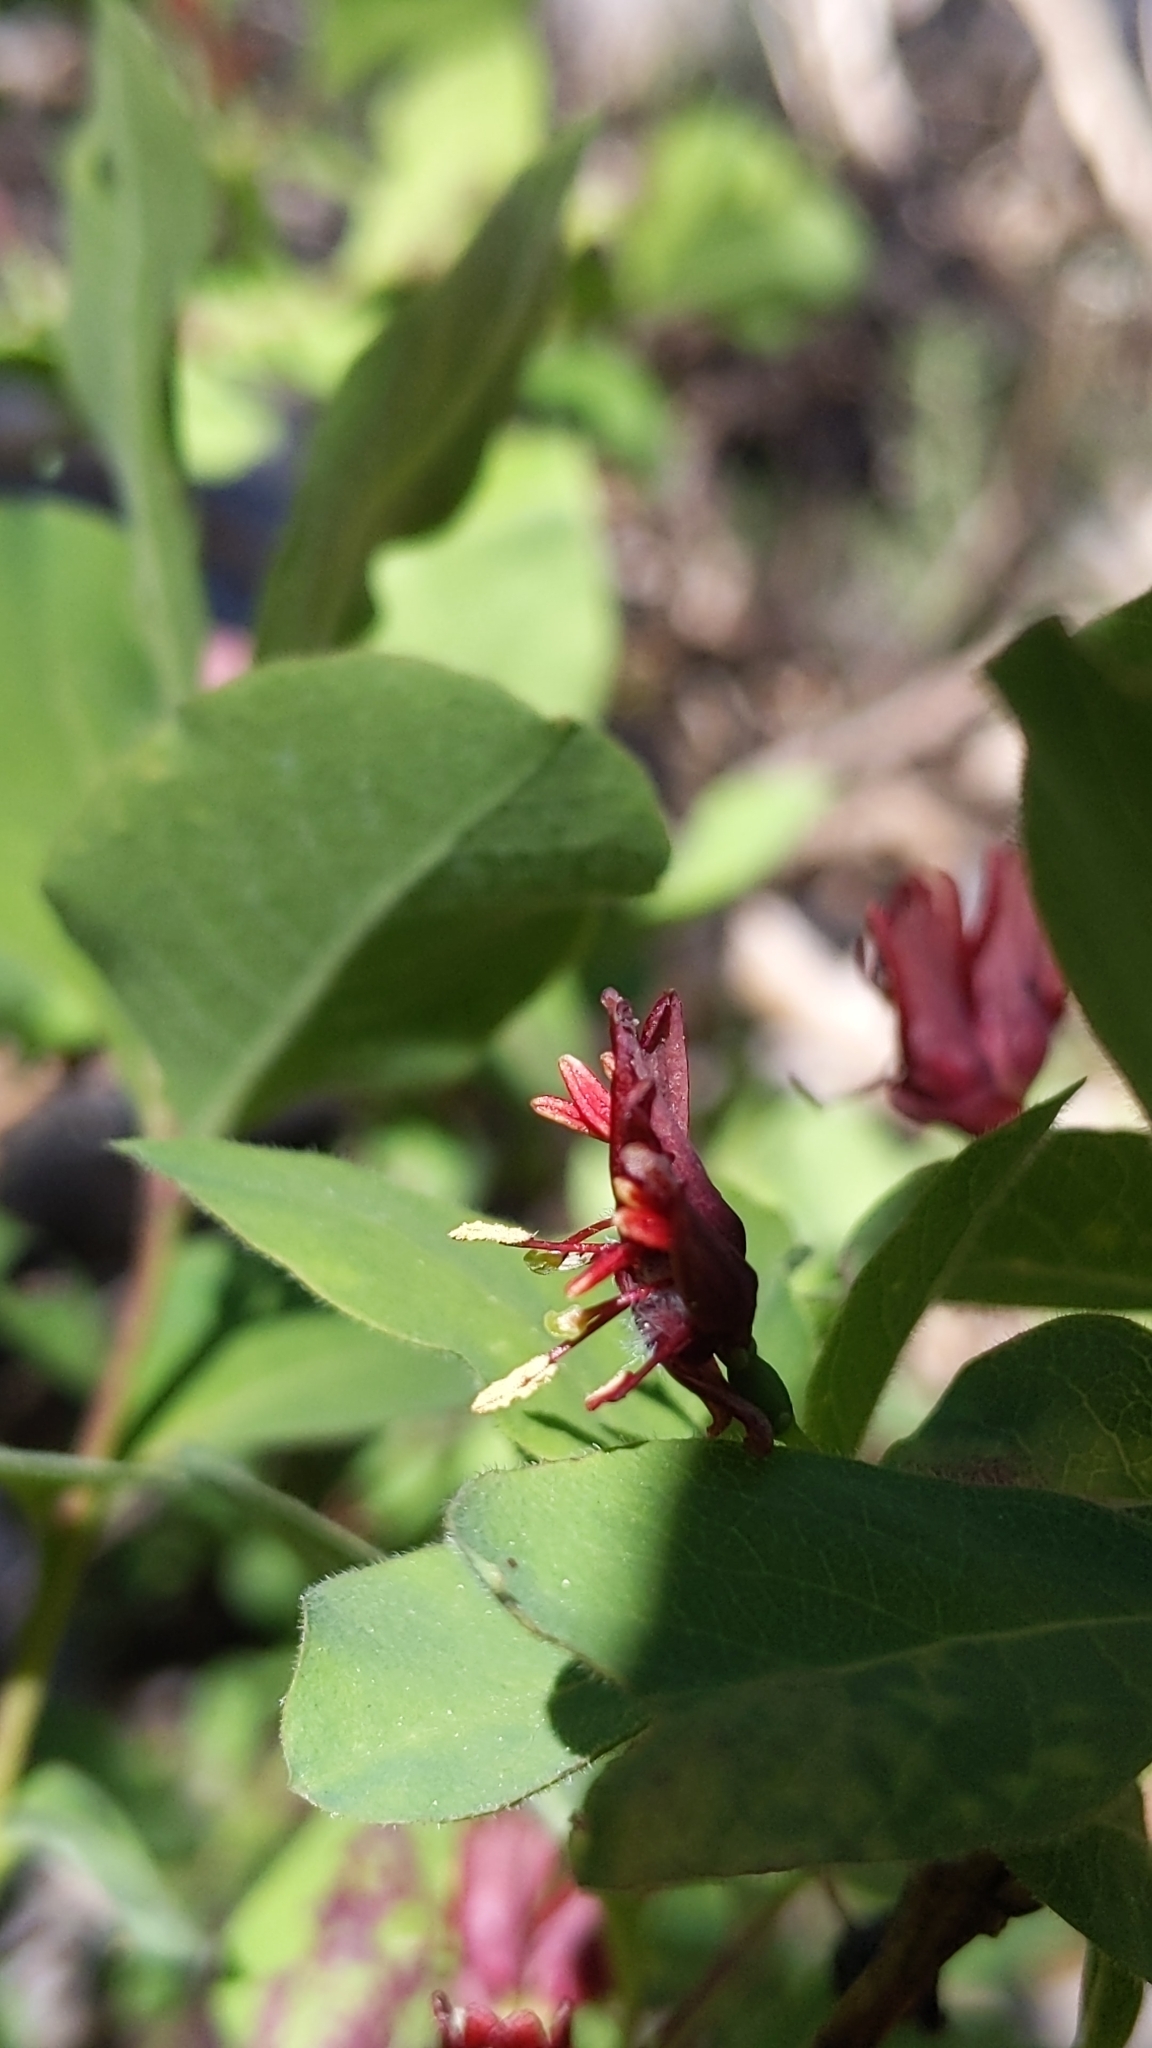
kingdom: Plantae
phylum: Tracheophyta
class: Magnoliopsida
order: Dipsacales
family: Caprifoliaceae
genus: Lonicera
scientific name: Lonicera conjugialis
